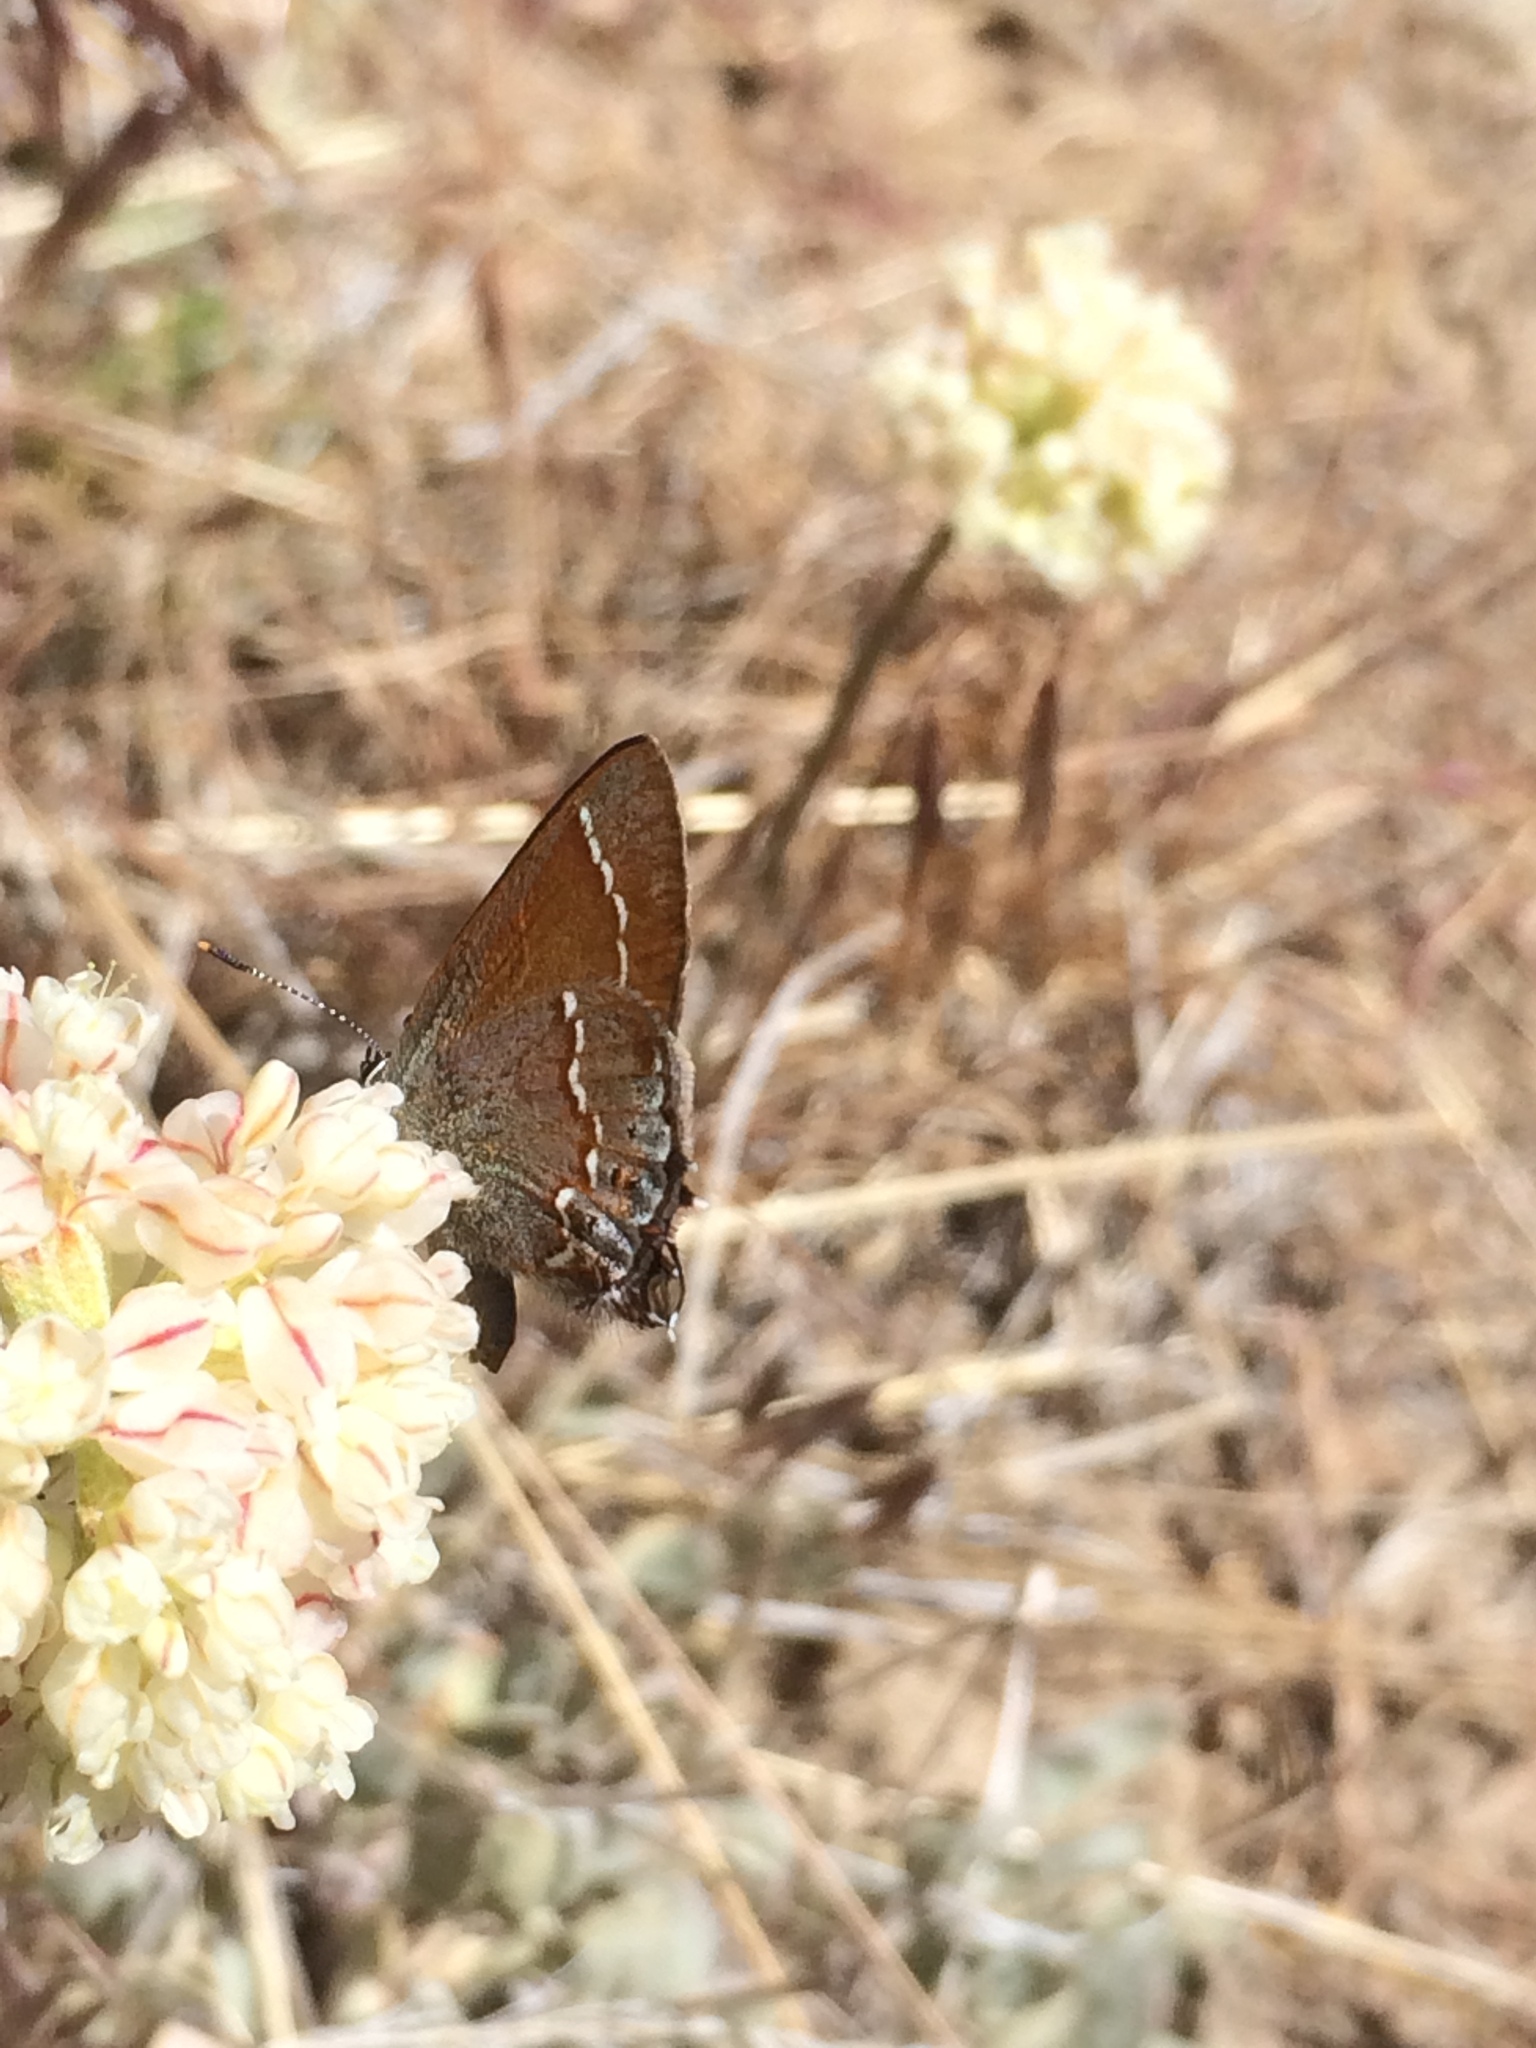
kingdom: Animalia
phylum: Arthropoda
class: Insecta
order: Lepidoptera
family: Lycaenidae
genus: Mitoura
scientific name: Mitoura gryneus
